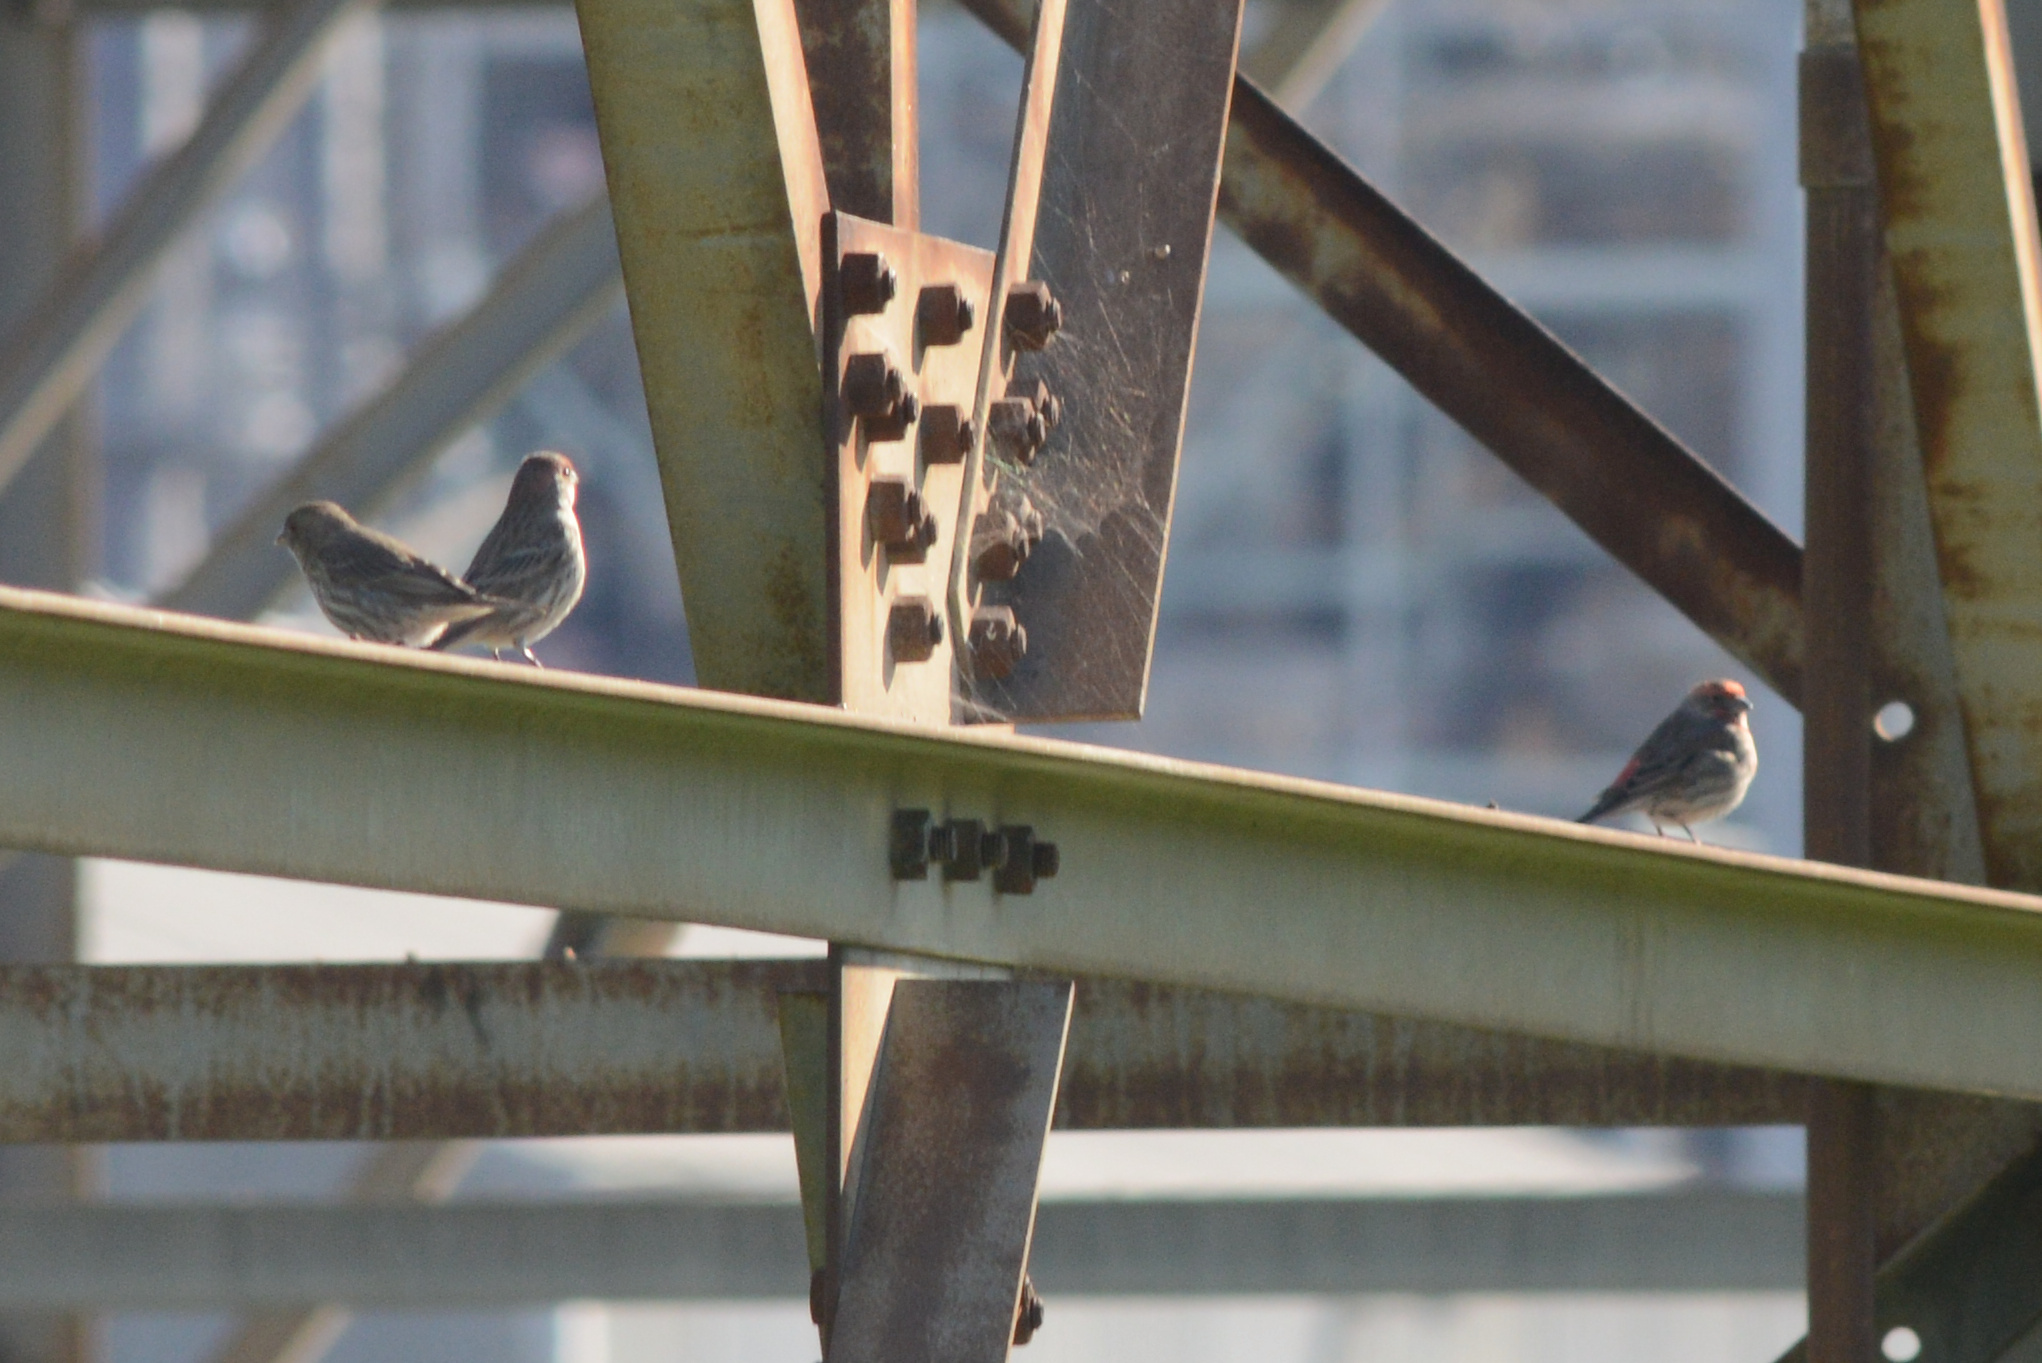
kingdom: Animalia
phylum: Chordata
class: Aves
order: Passeriformes
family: Fringillidae
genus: Haemorhous
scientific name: Haemorhous mexicanus
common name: House finch
